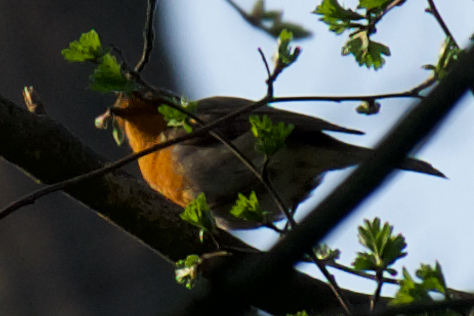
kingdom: Animalia
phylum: Chordata
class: Aves
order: Passeriformes
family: Muscicapidae
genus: Erithacus
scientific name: Erithacus rubecula
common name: European robin
